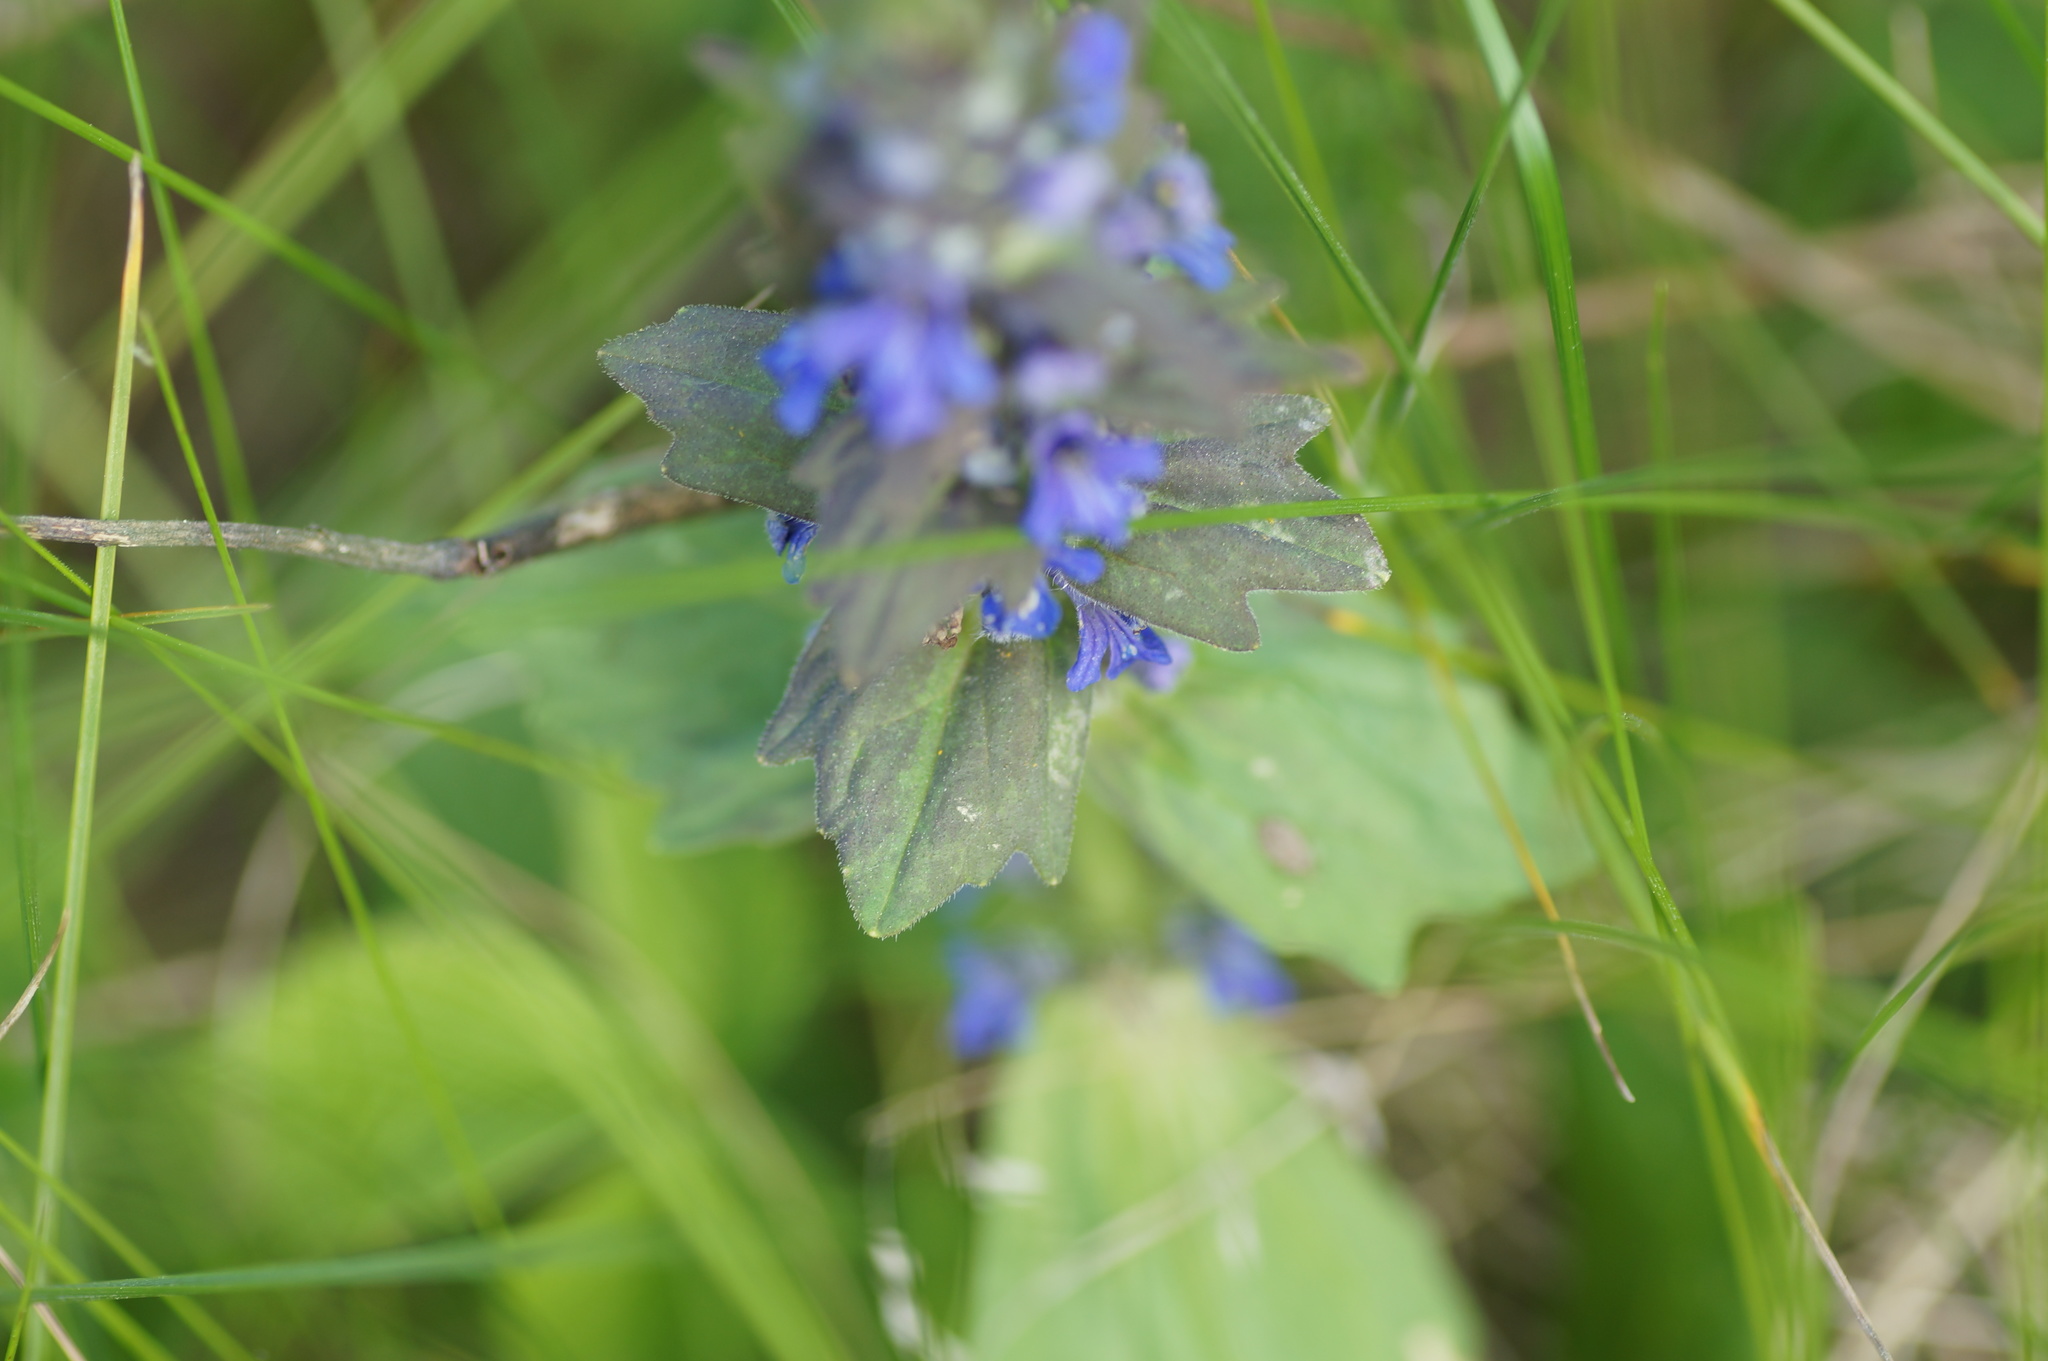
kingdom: Plantae
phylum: Tracheophyta
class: Magnoliopsida
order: Lamiales
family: Lamiaceae
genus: Ajuga
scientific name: Ajuga genevensis
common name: Blue bugle
